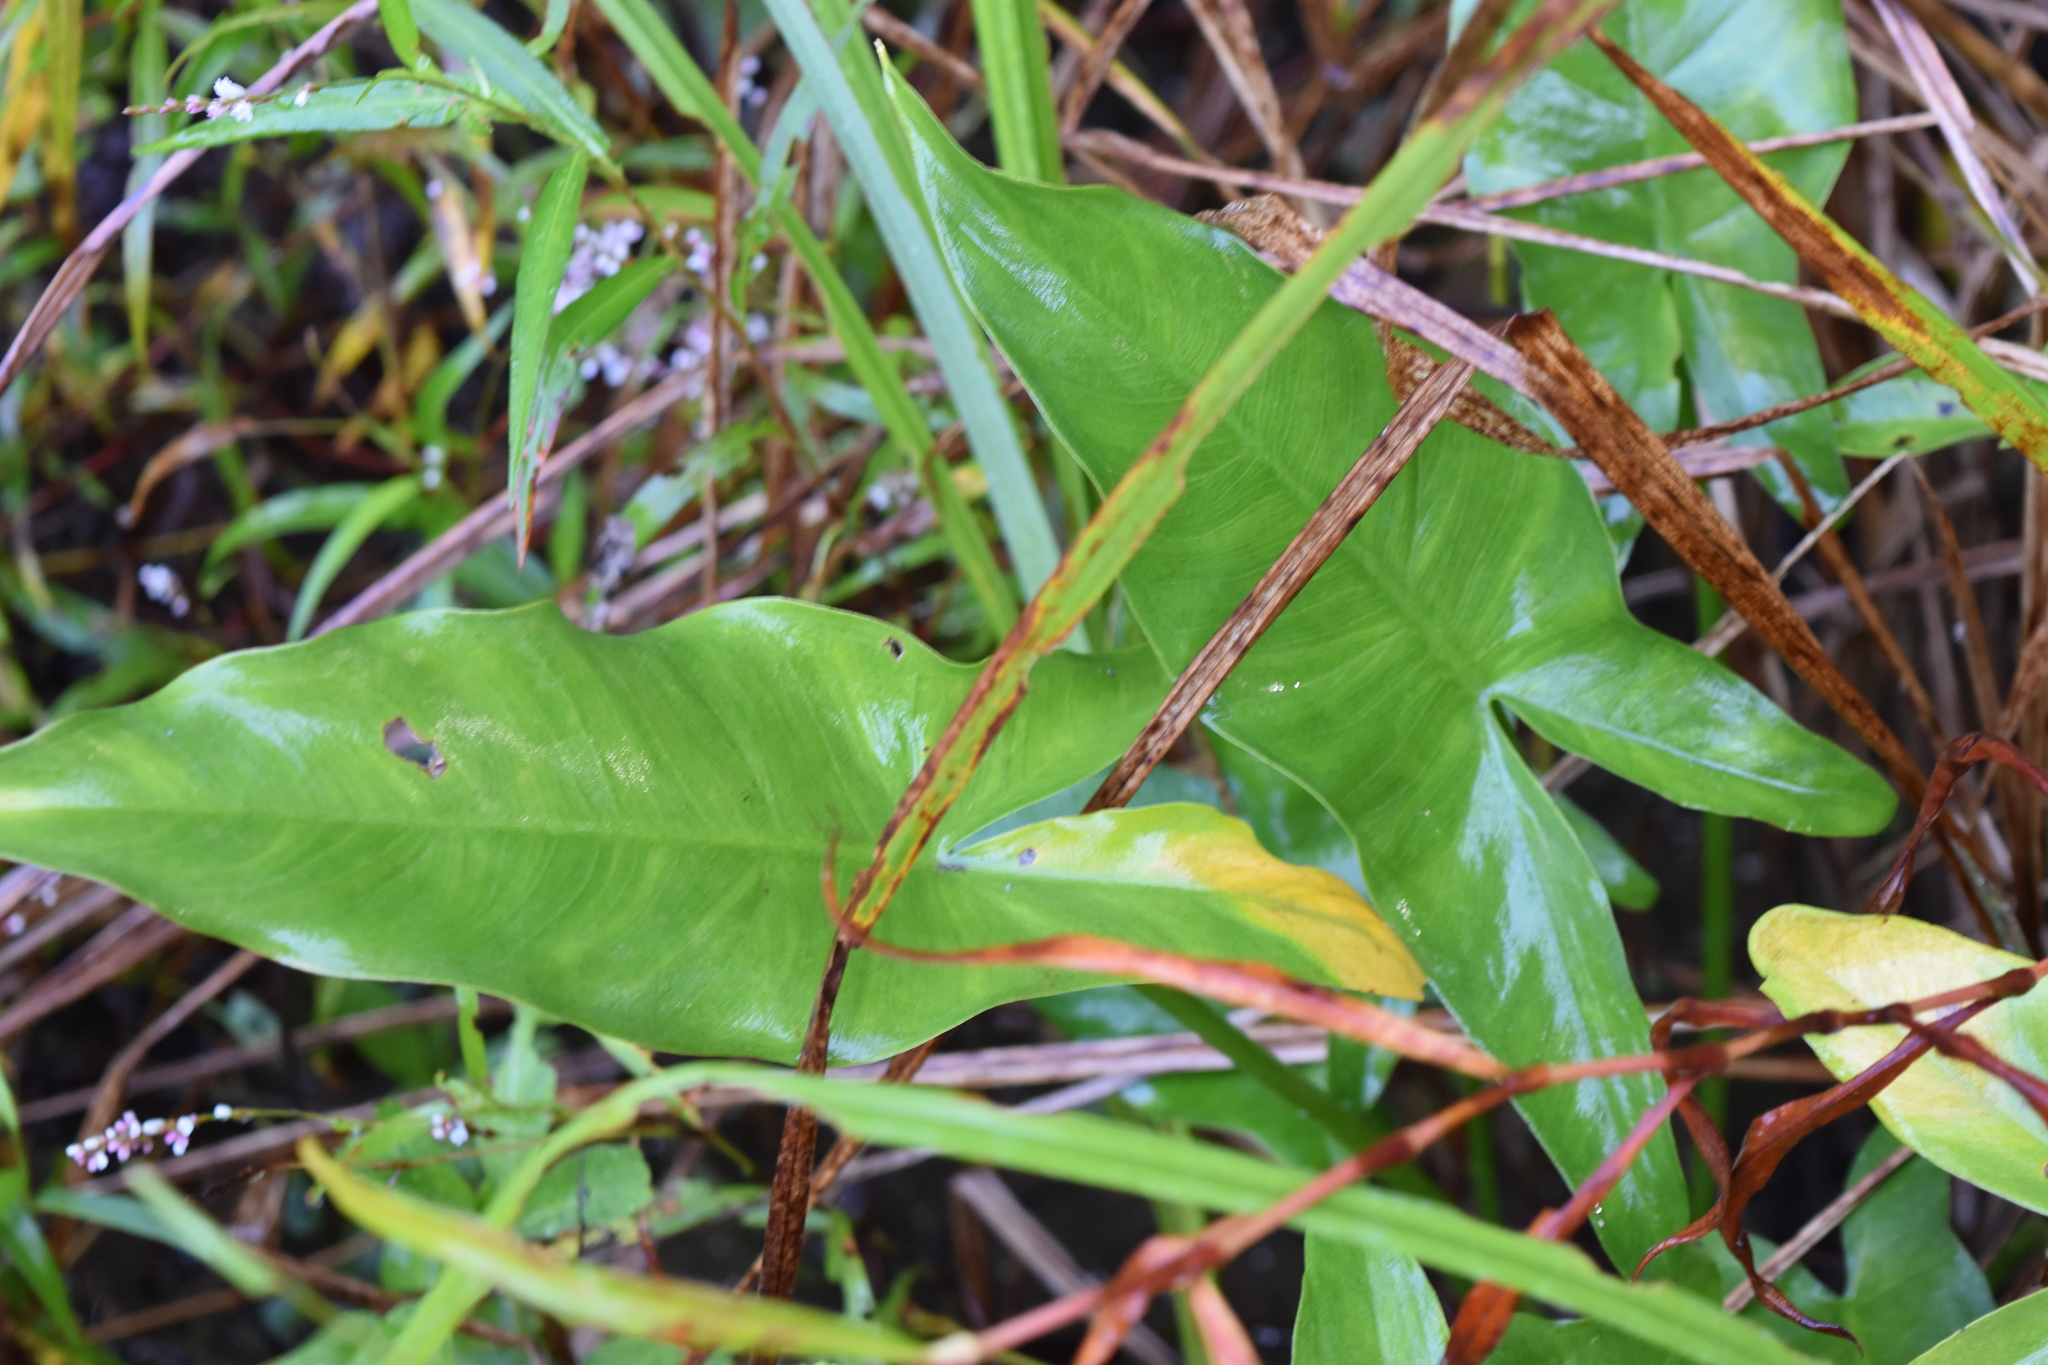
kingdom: Plantae
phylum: Tracheophyta
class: Liliopsida
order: Alismatales
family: Araceae
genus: Peltandra
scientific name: Peltandra virginica
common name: Arrow arum
